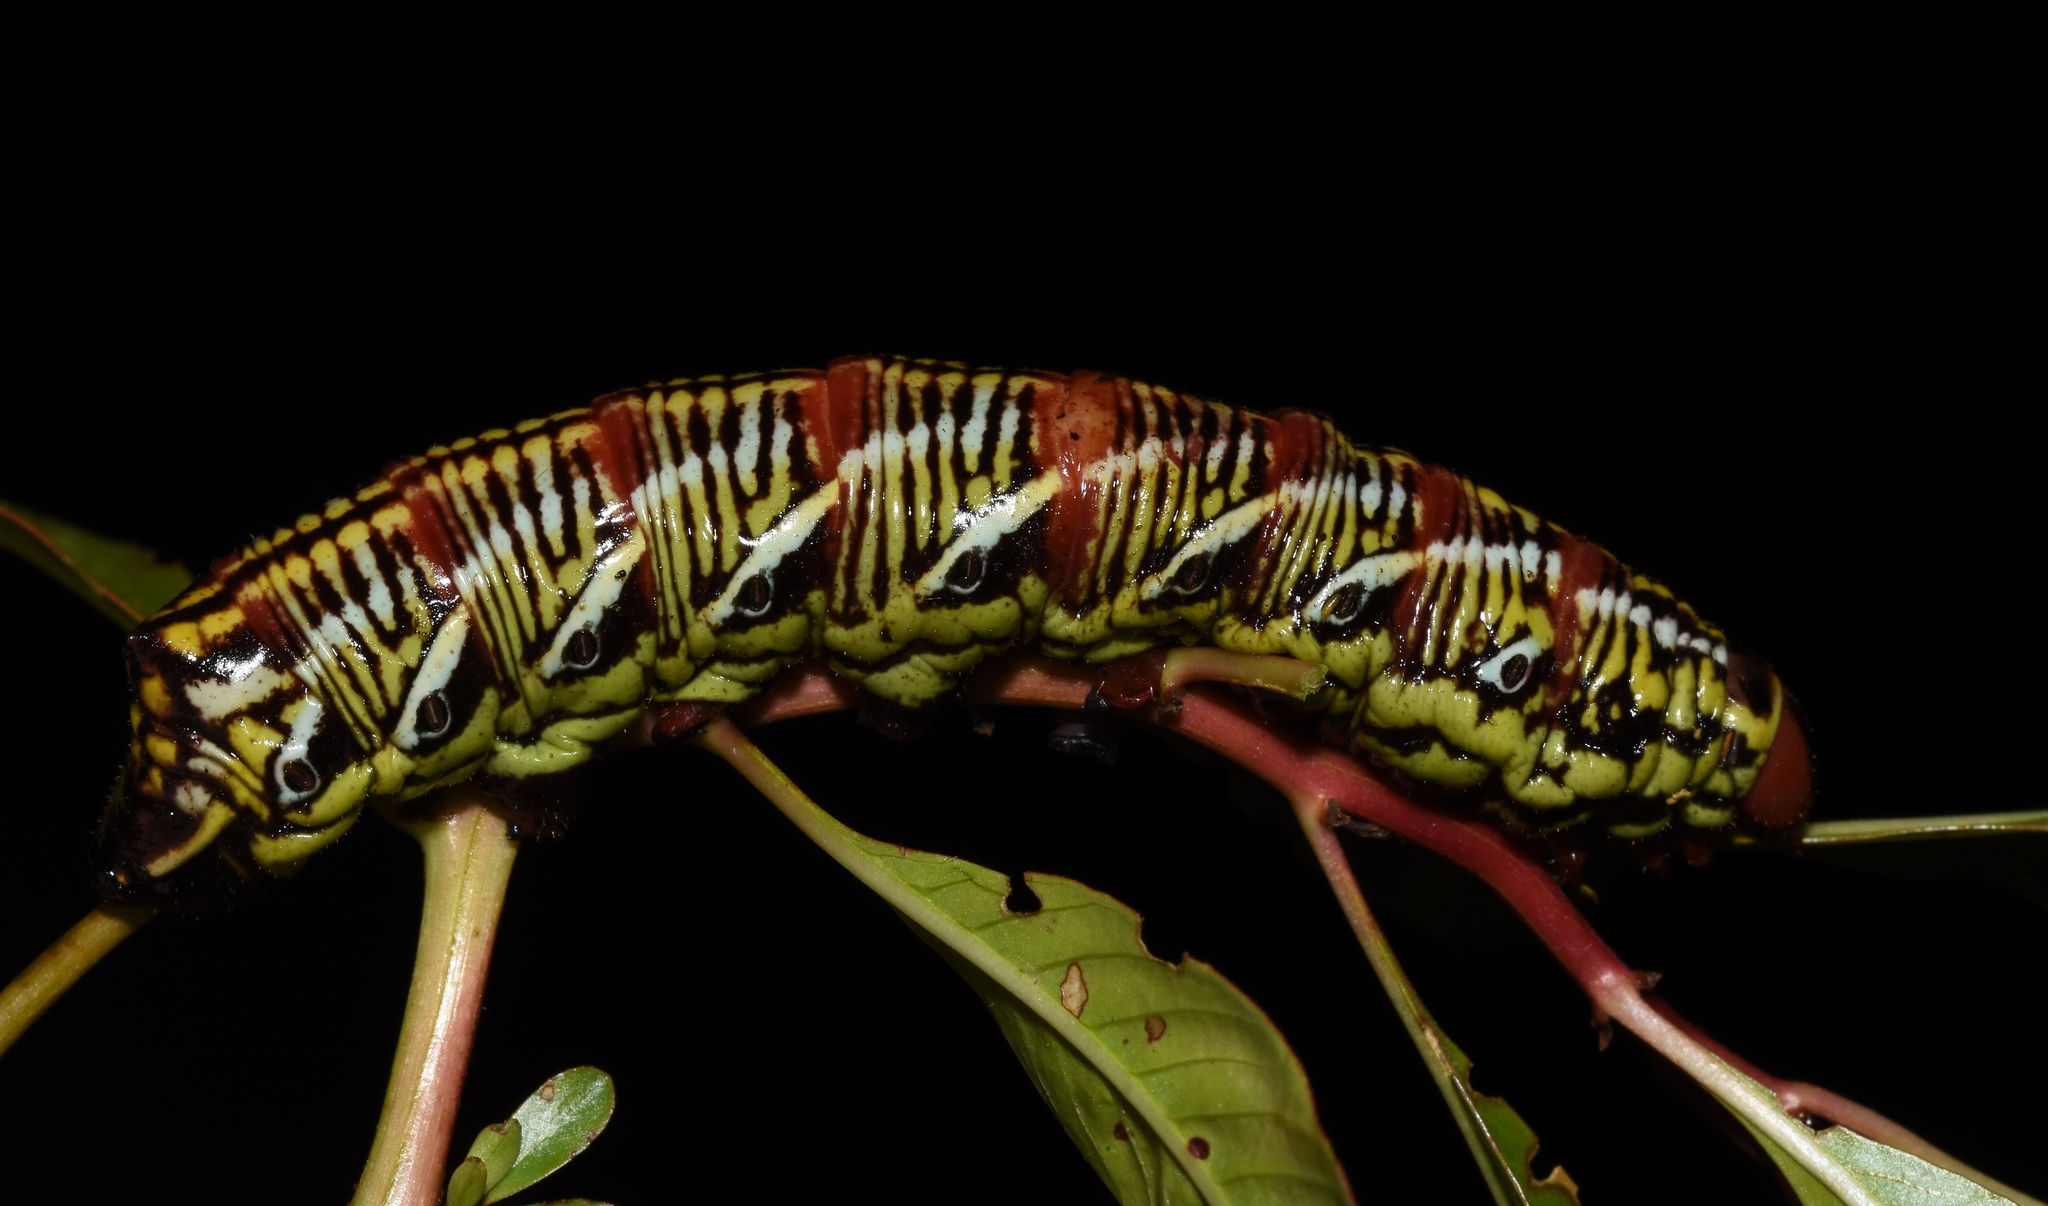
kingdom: Animalia
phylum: Arthropoda
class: Insecta
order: Lepidoptera
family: Sphingidae
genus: Eumorpha
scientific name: Eumorpha fasciatus
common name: Banded sphinx
